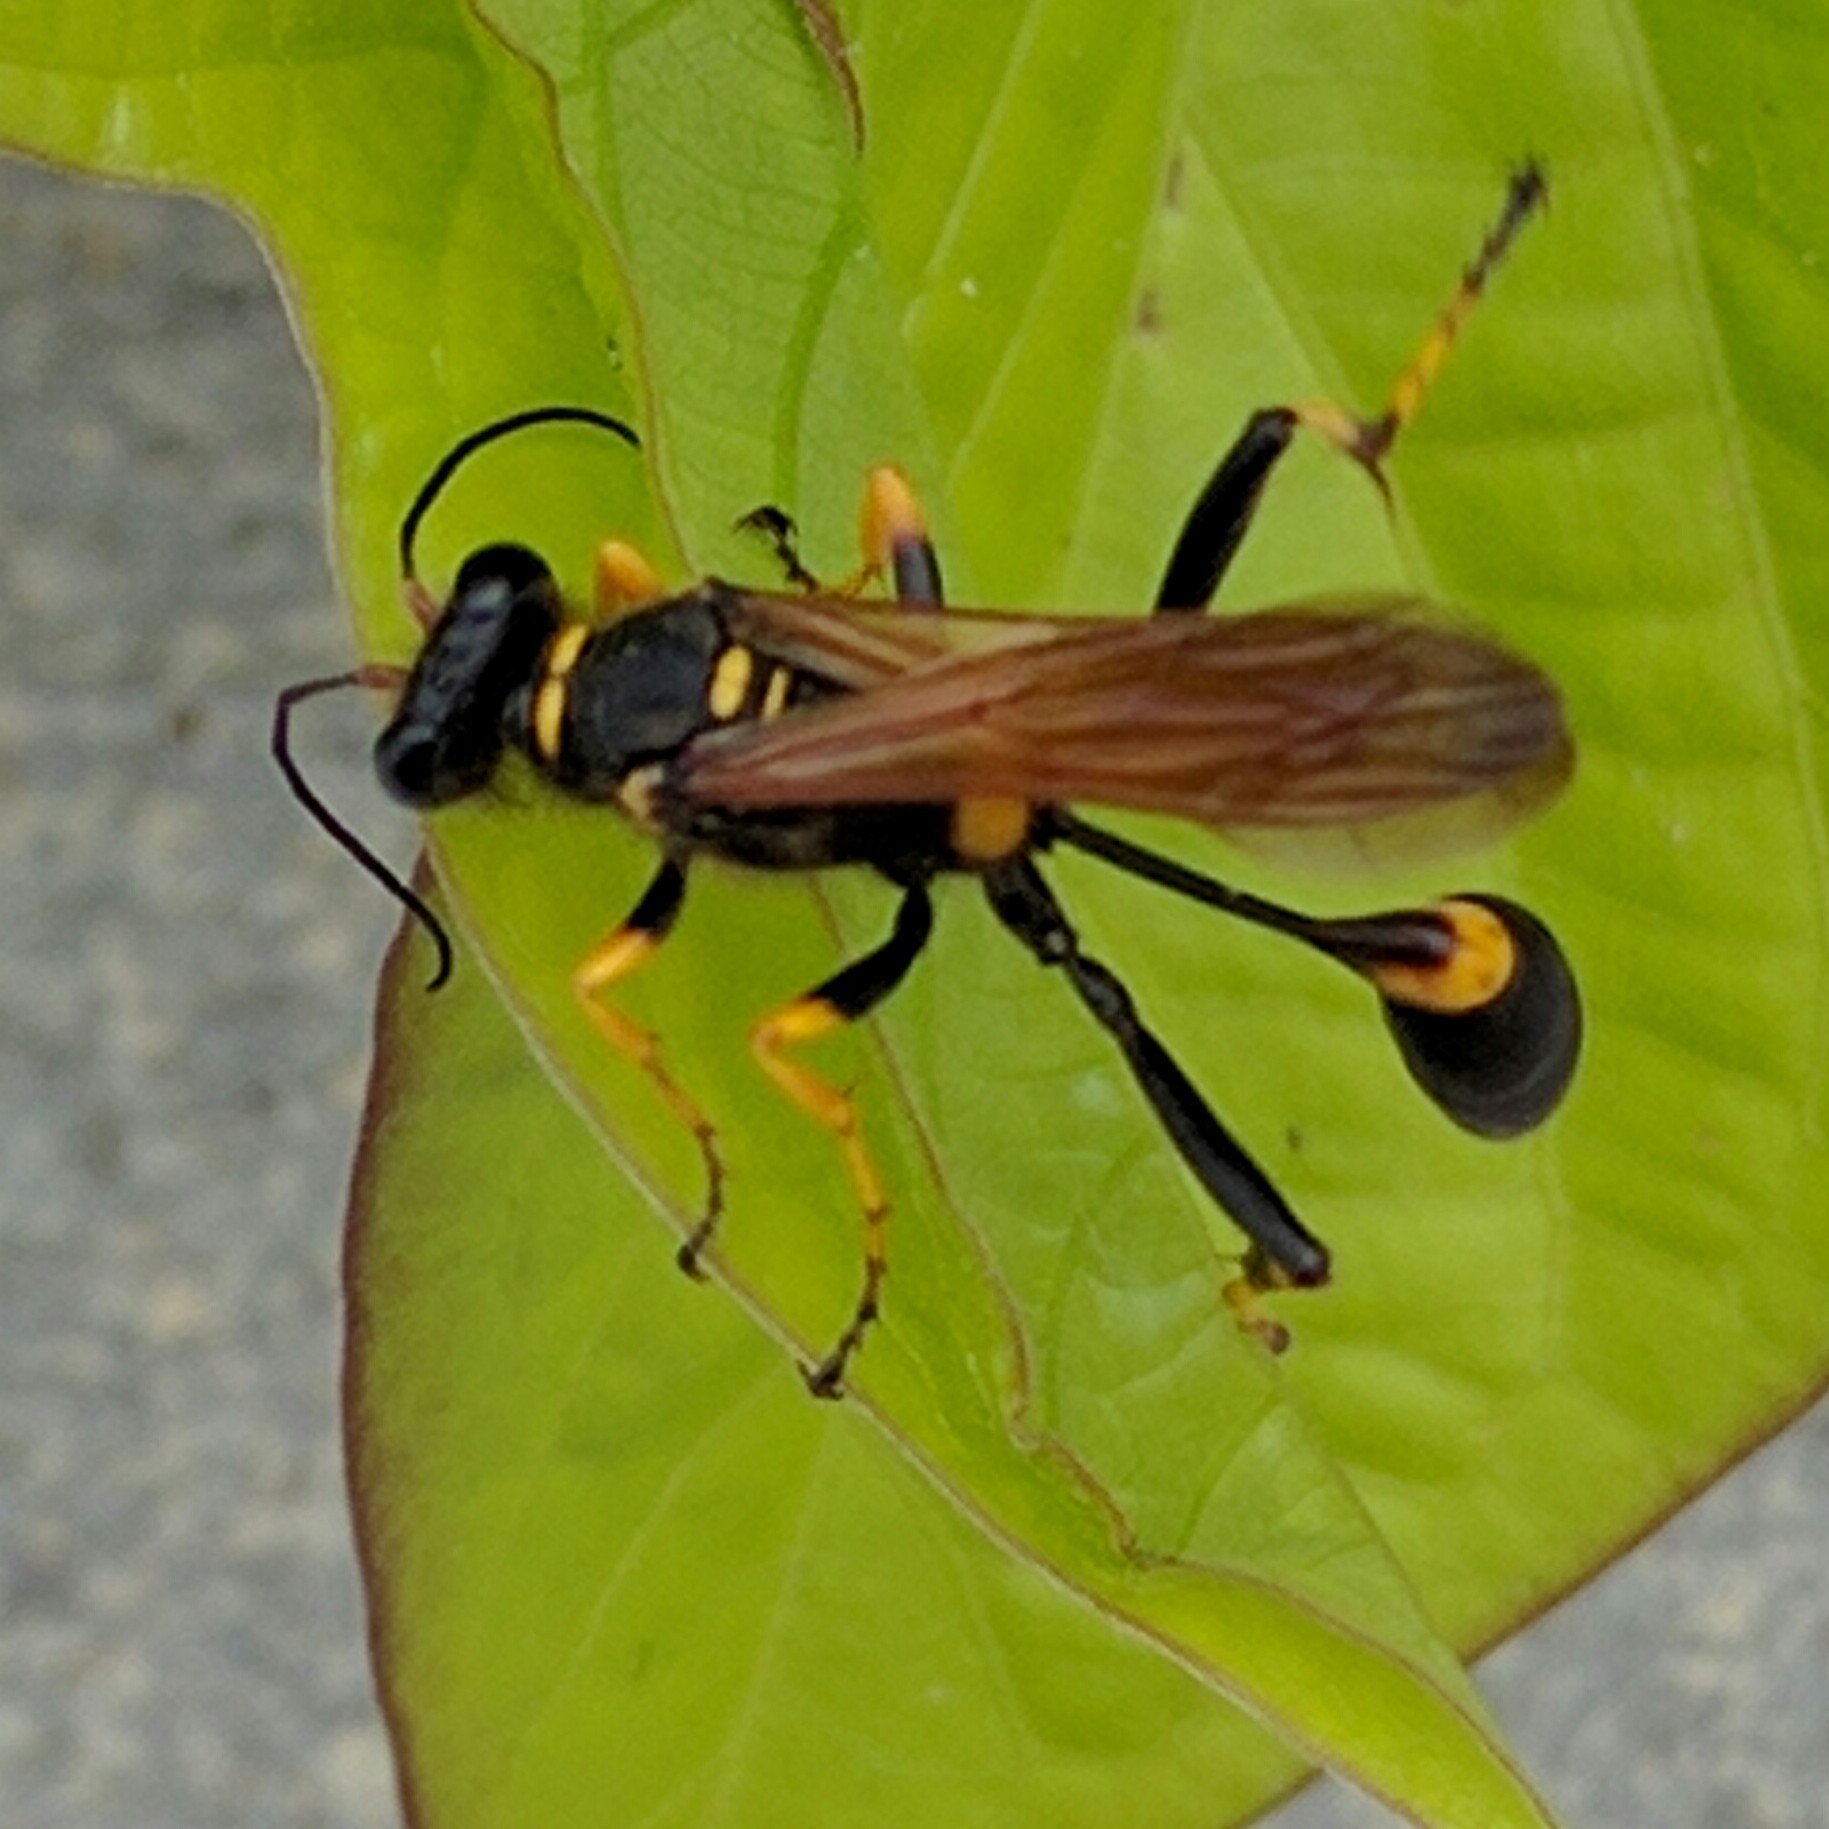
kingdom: Animalia
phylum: Arthropoda
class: Insecta
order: Hymenoptera
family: Sphecidae
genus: Sceliphron
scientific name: Sceliphron caementarium
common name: Mud dauber
